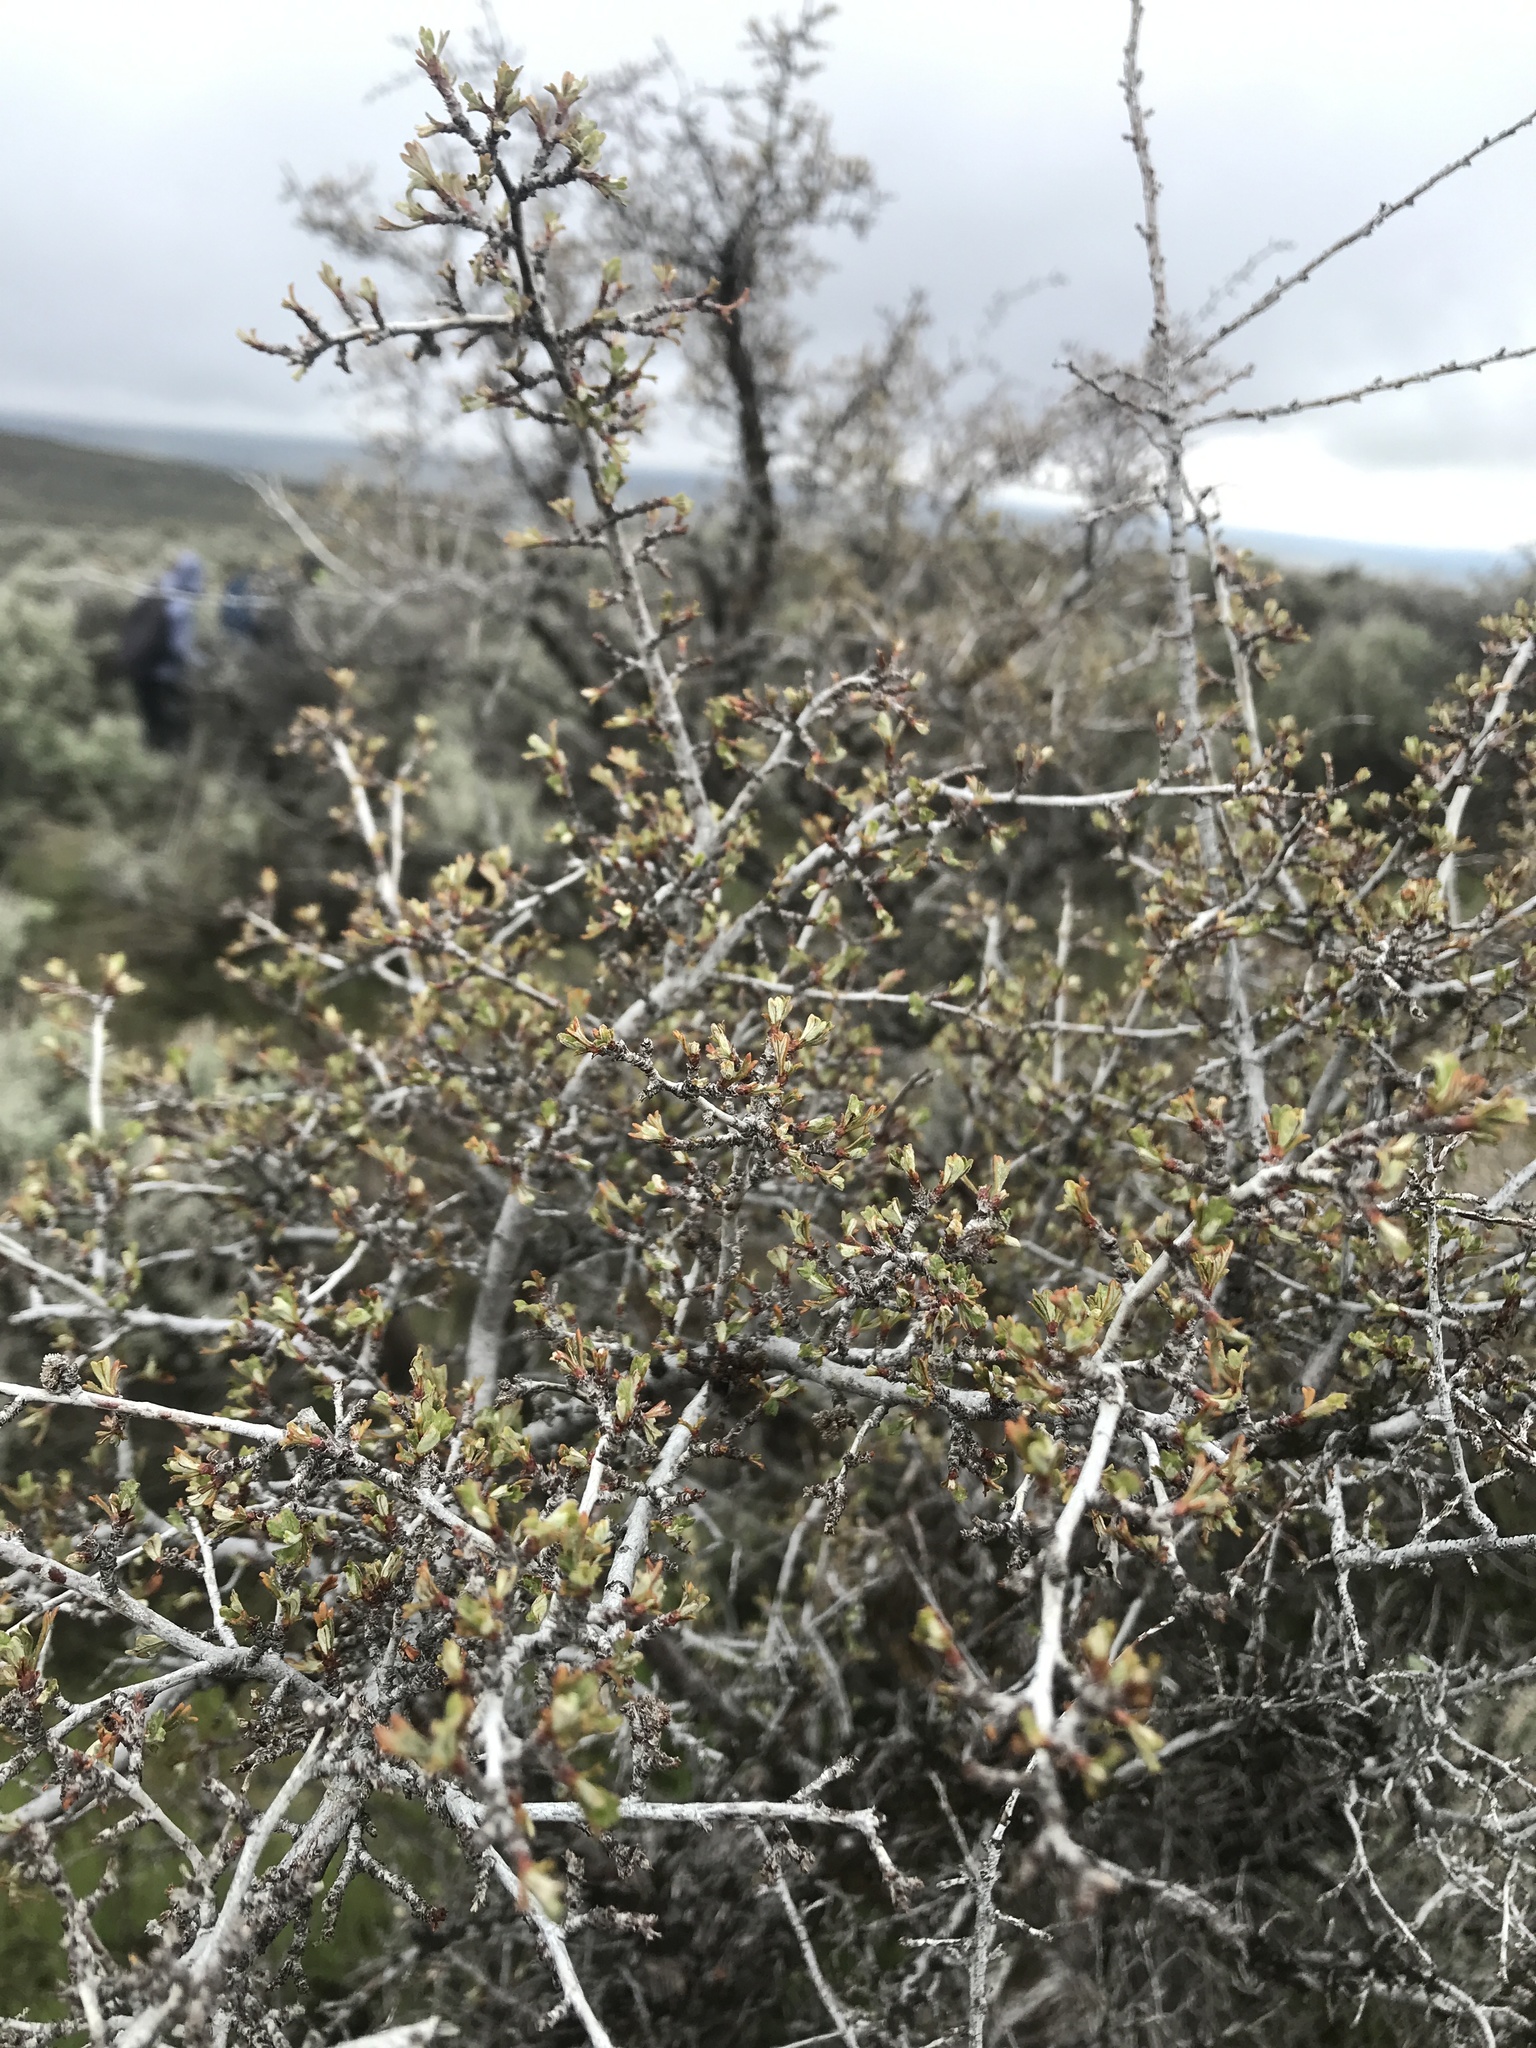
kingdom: Plantae
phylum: Tracheophyta
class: Magnoliopsida
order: Rosales
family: Rosaceae
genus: Purshia
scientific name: Purshia tridentata
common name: Antelope bitterbrush
